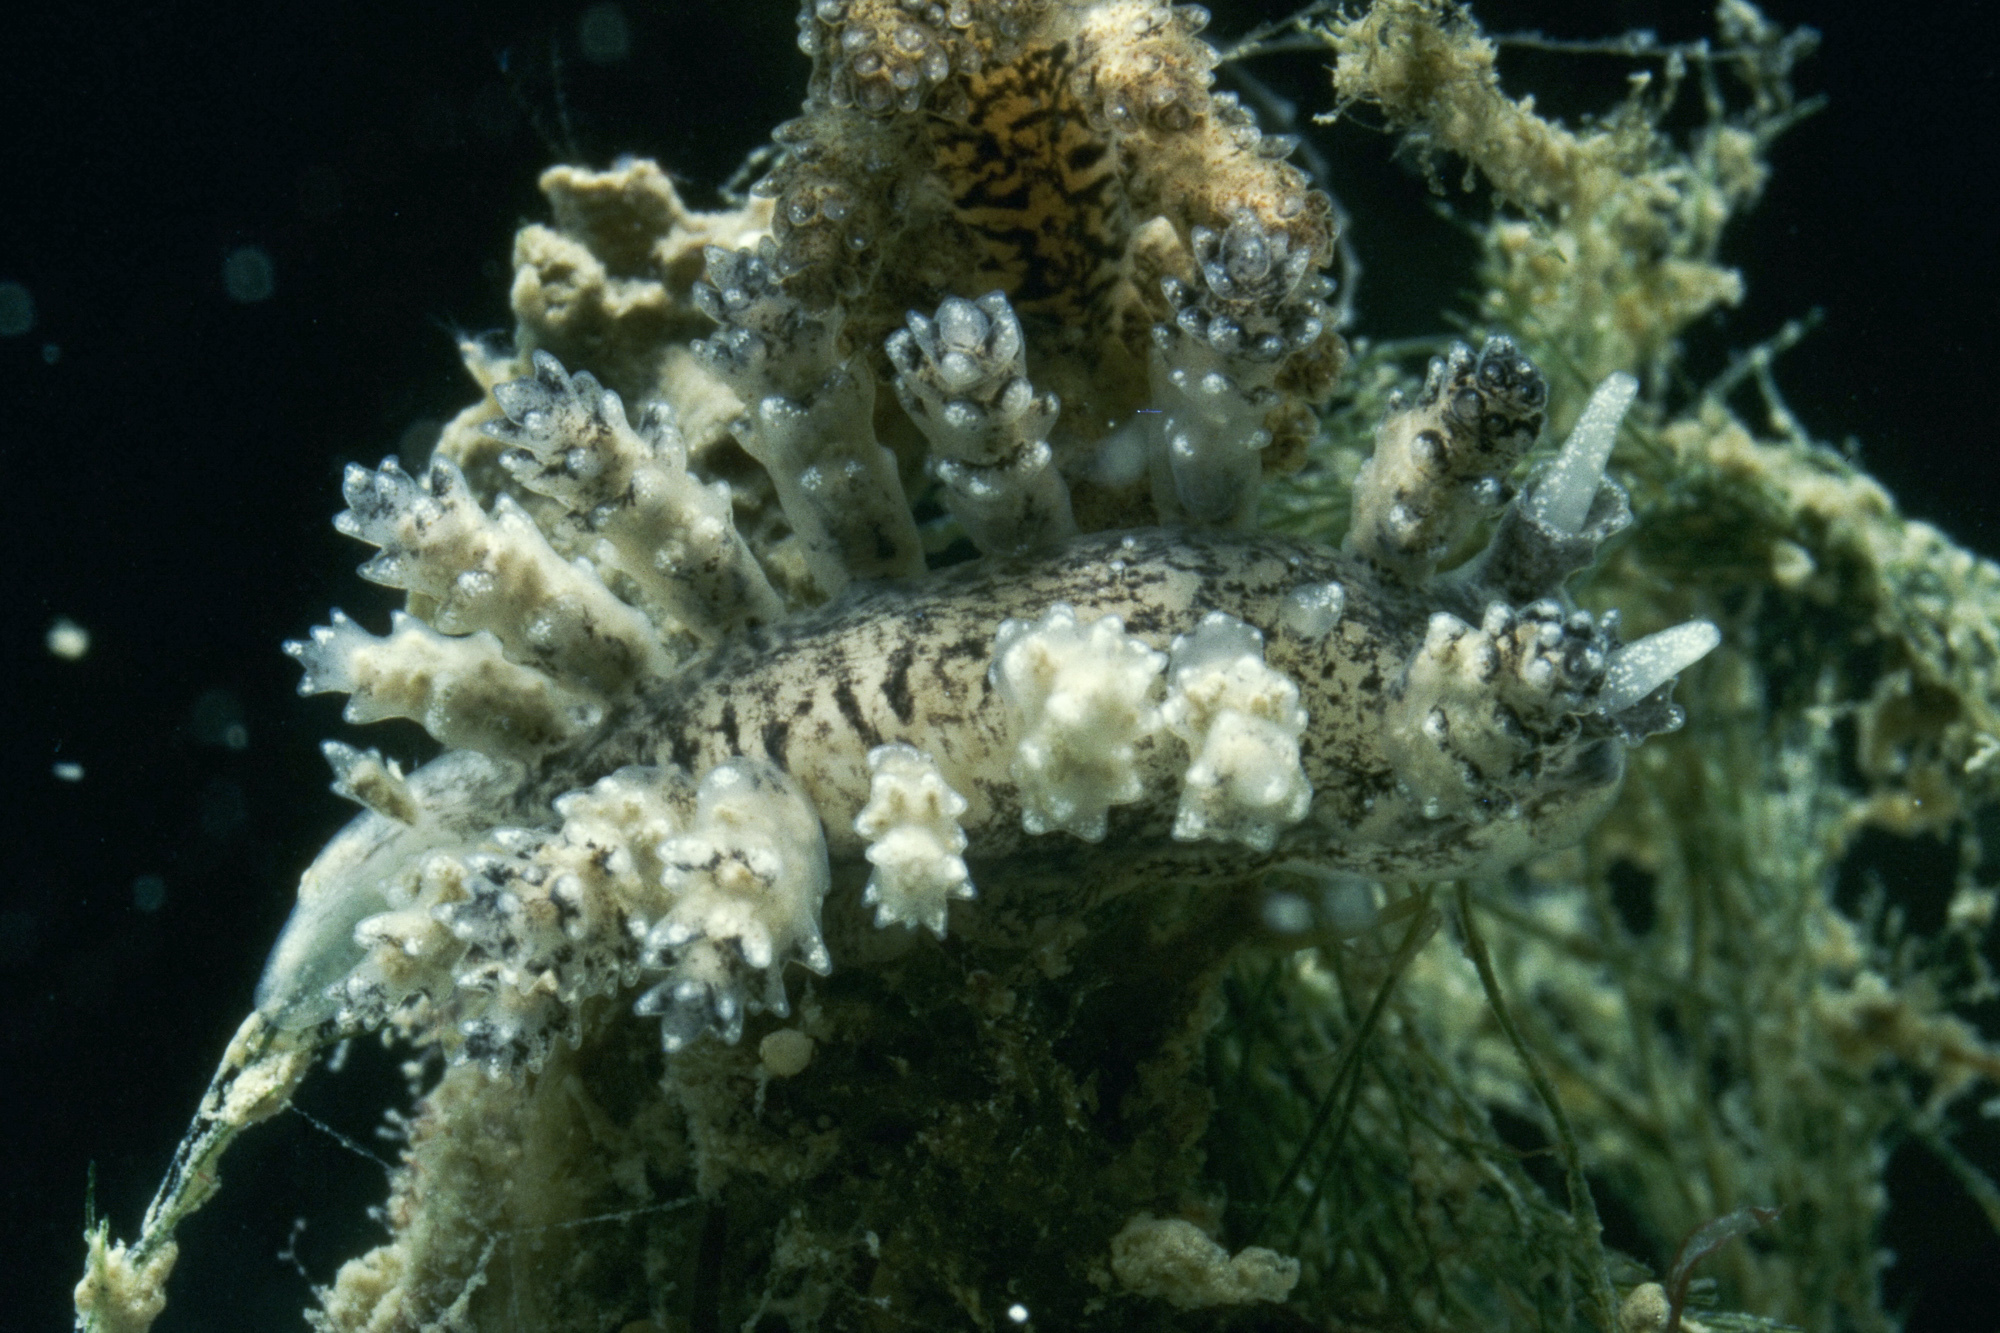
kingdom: Animalia
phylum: Mollusca
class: Gastropoda
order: Nudibranchia
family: Dotidae
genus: Doto
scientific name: Doto cuspidata
